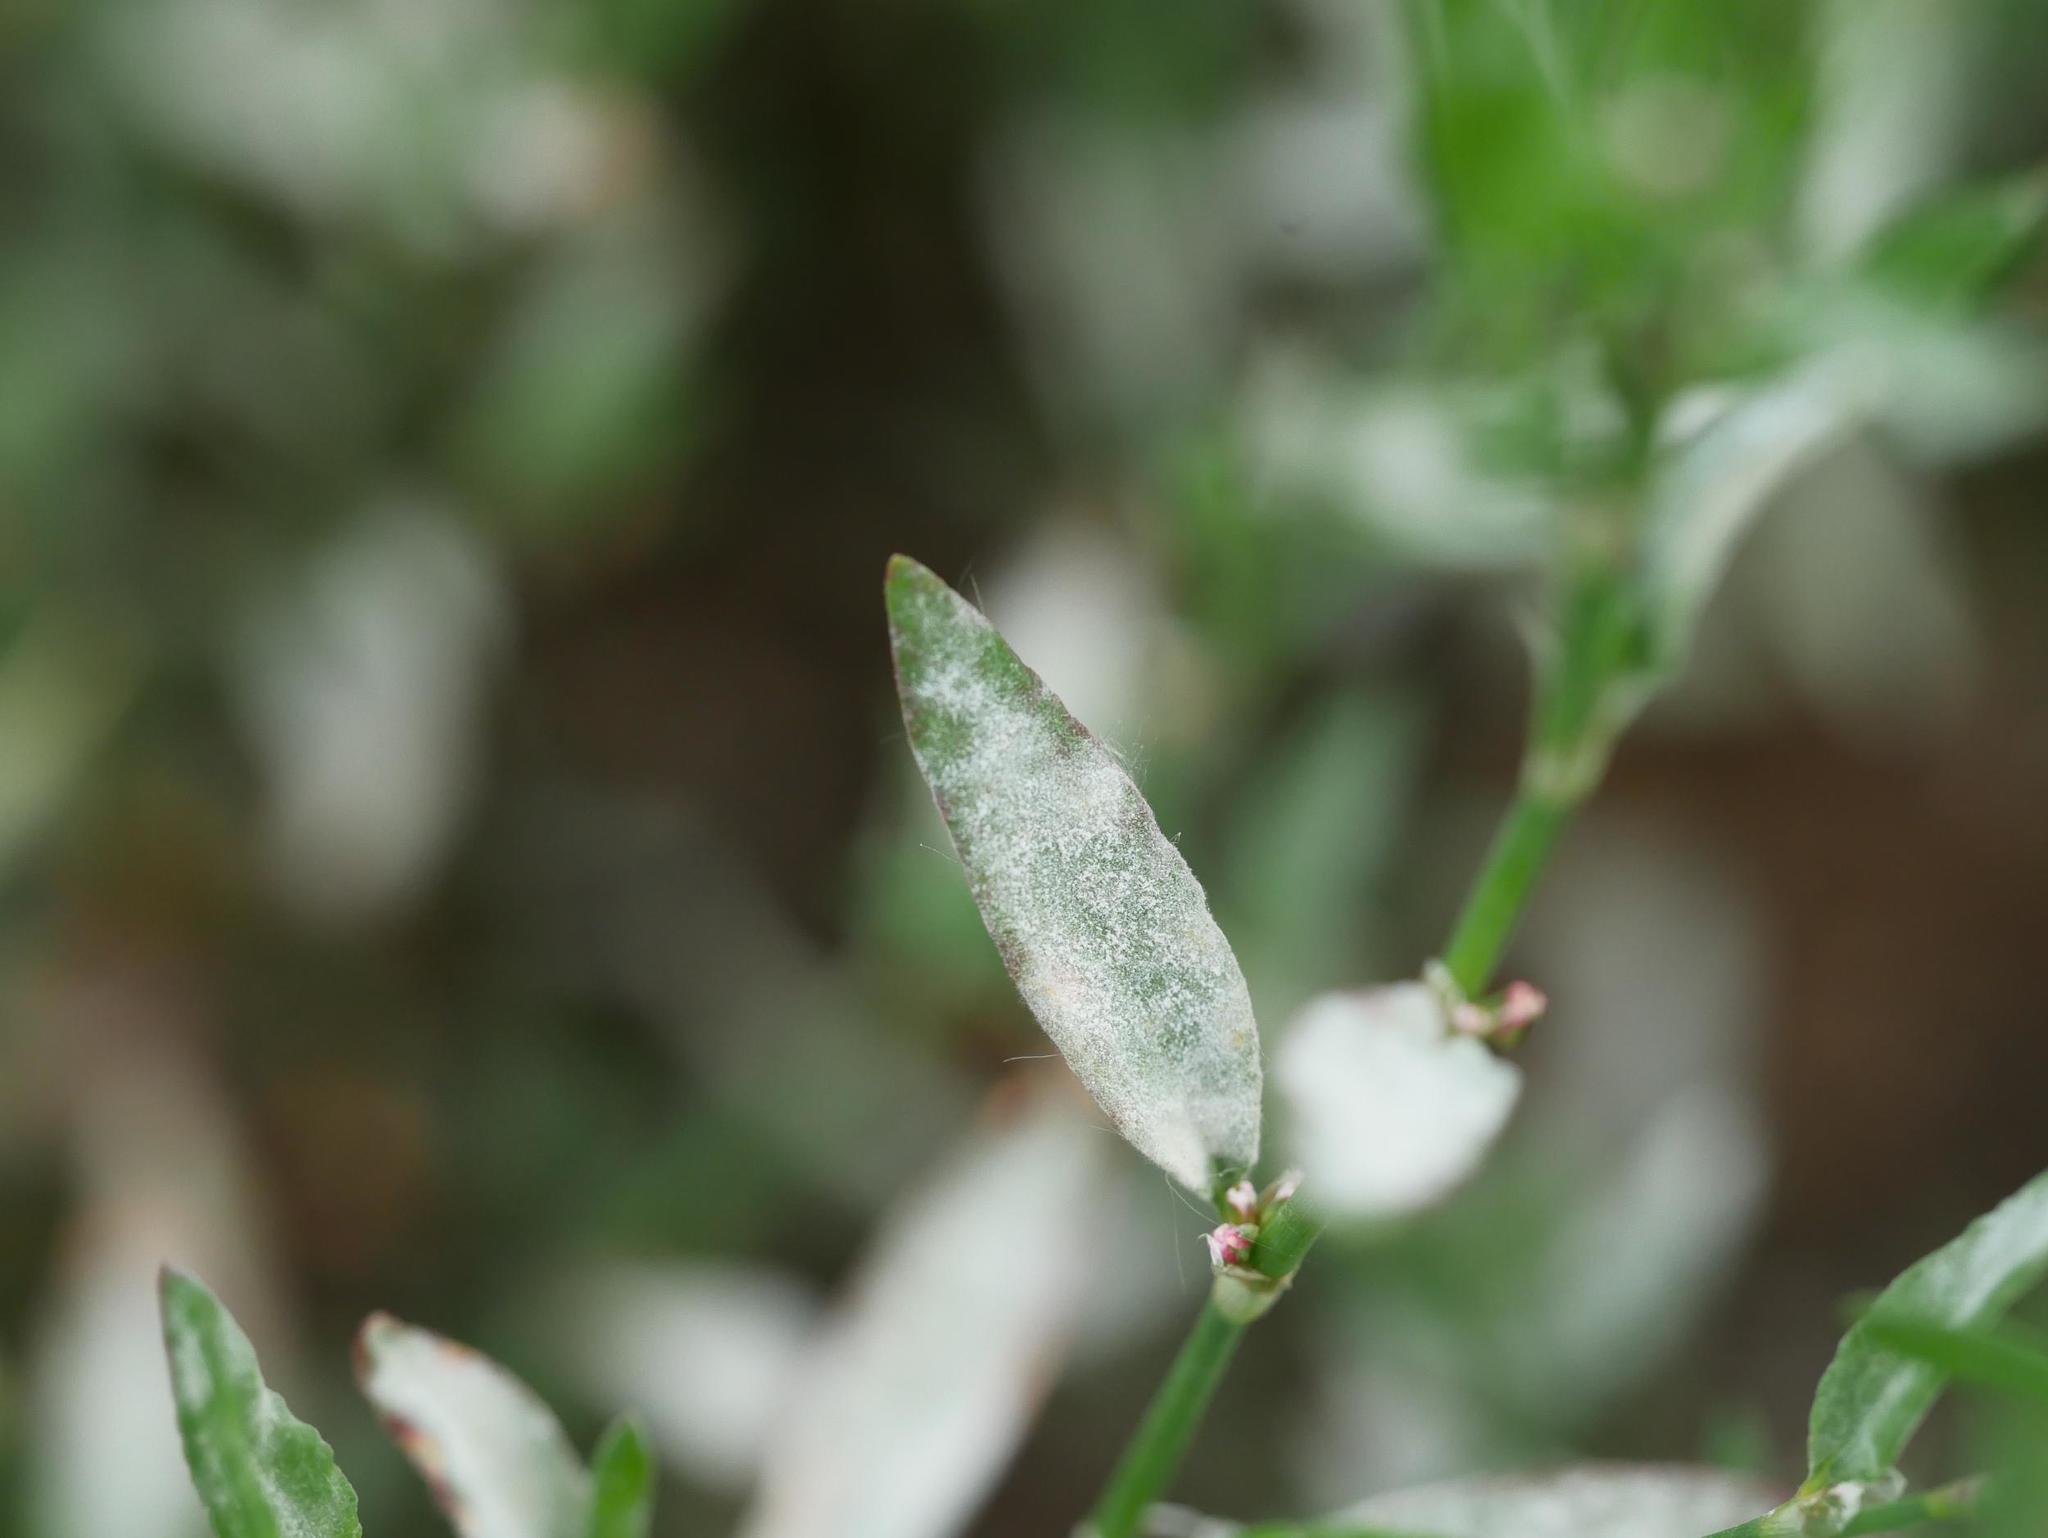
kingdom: Fungi
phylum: Ascomycota
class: Leotiomycetes
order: Helotiales
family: Erysiphaceae
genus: Erysiphe
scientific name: Erysiphe polygoni
